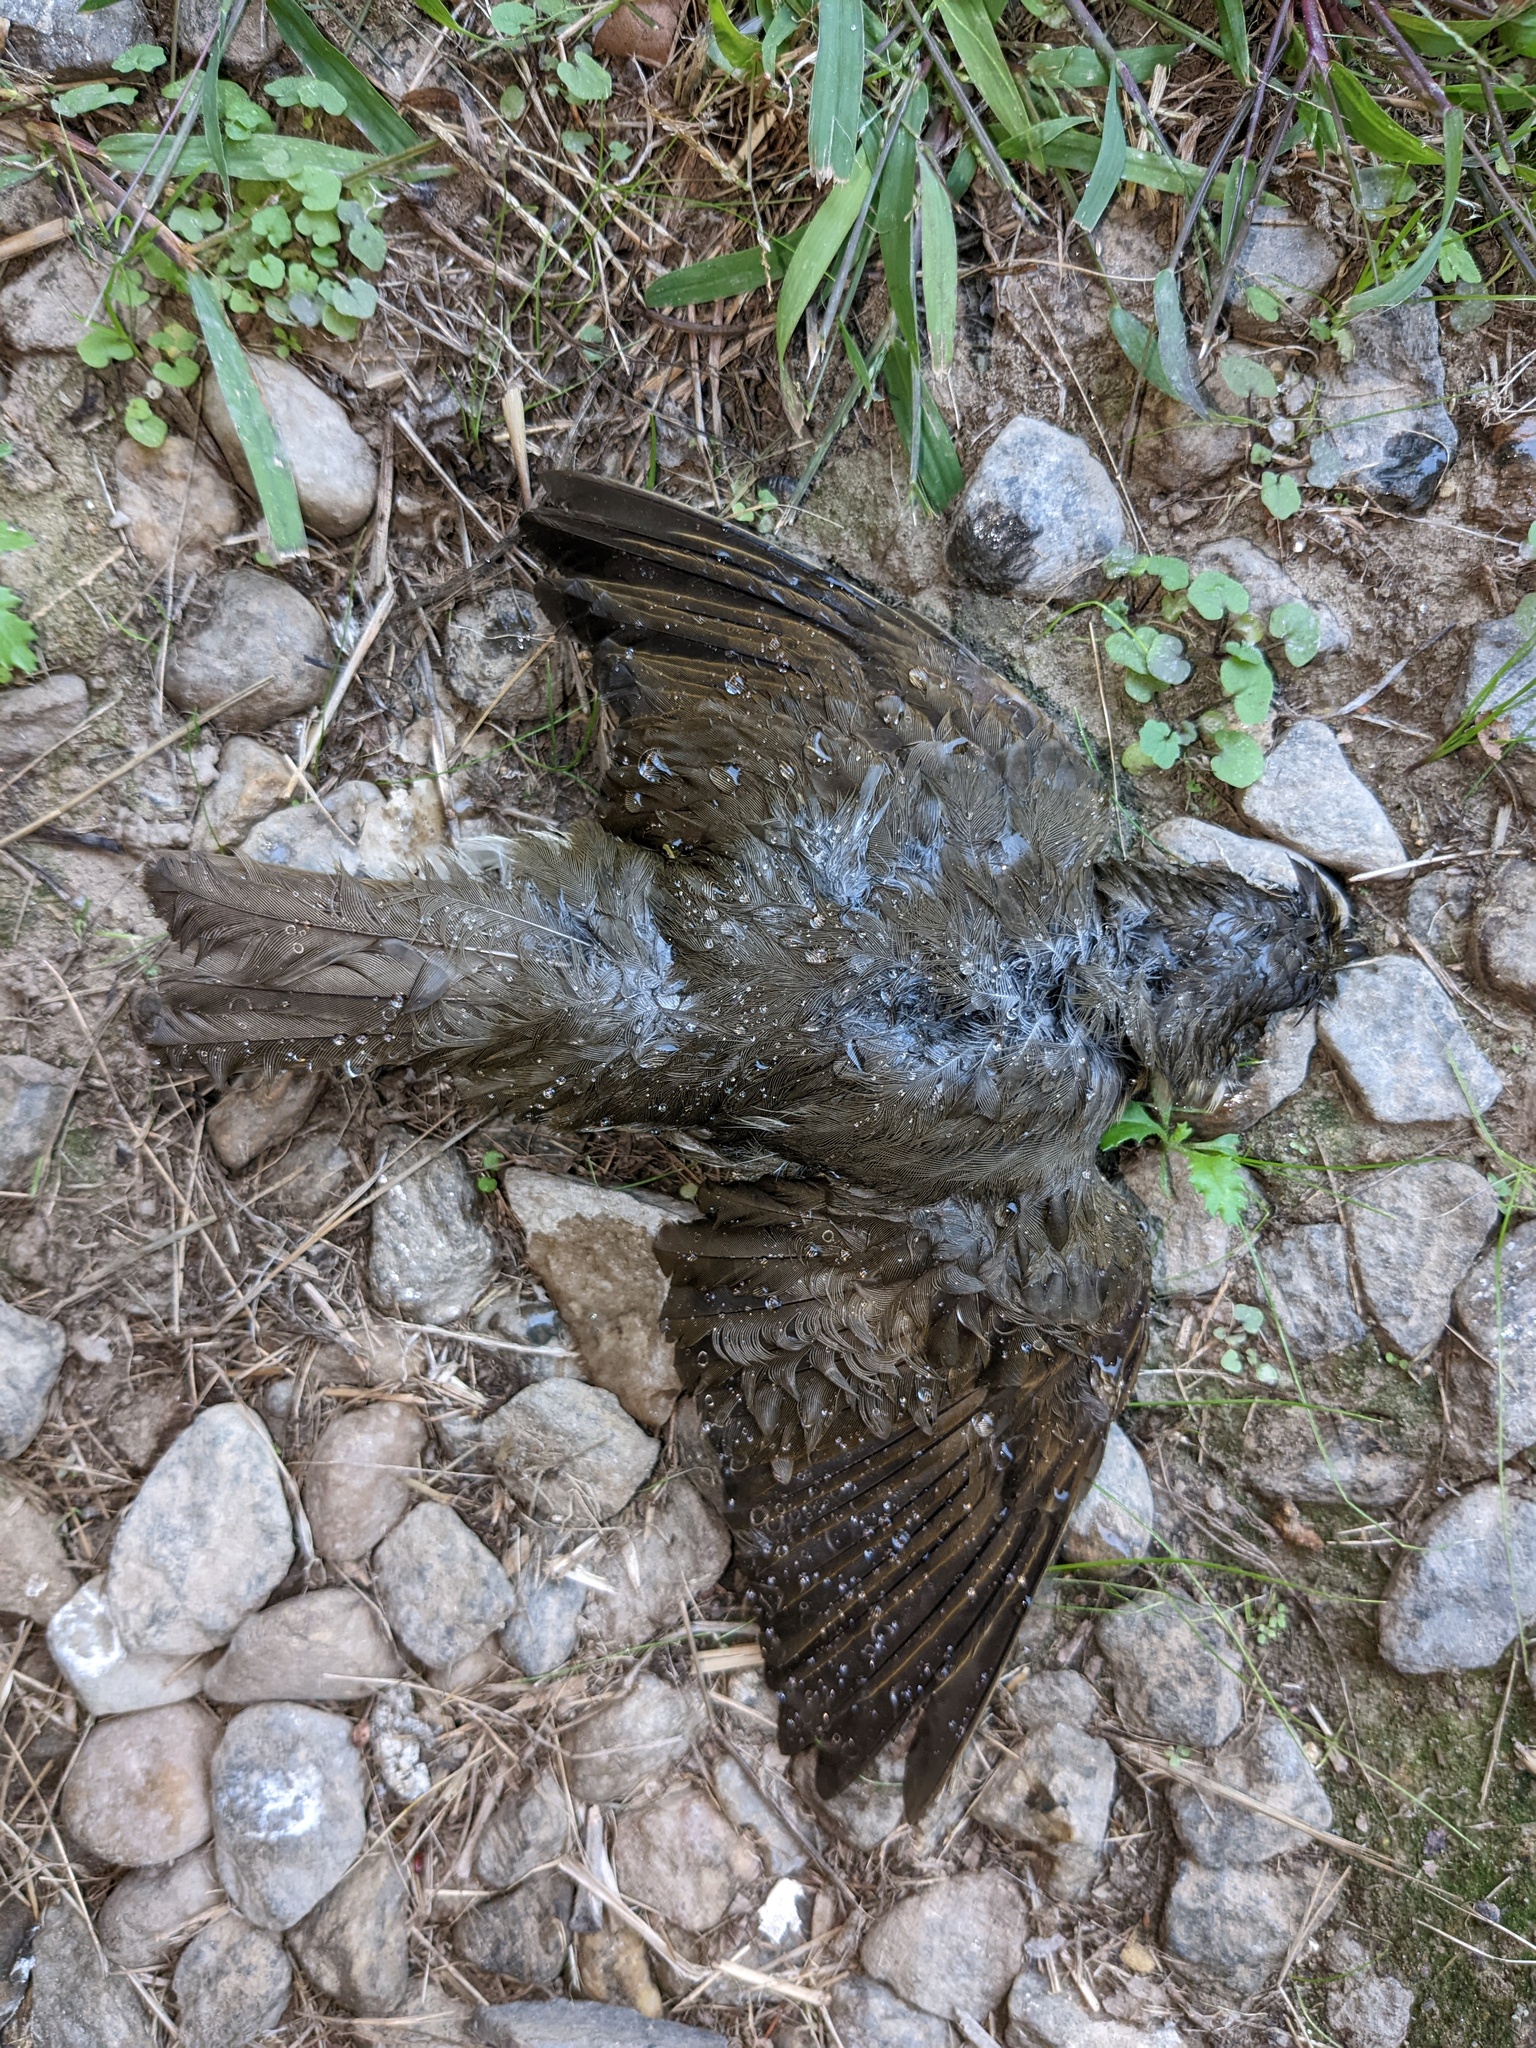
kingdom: Animalia
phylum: Chordata
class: Aves
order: Passeriformes
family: Turdidae
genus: Catharus
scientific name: Catharus ustulatus
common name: Swainson's thrush
